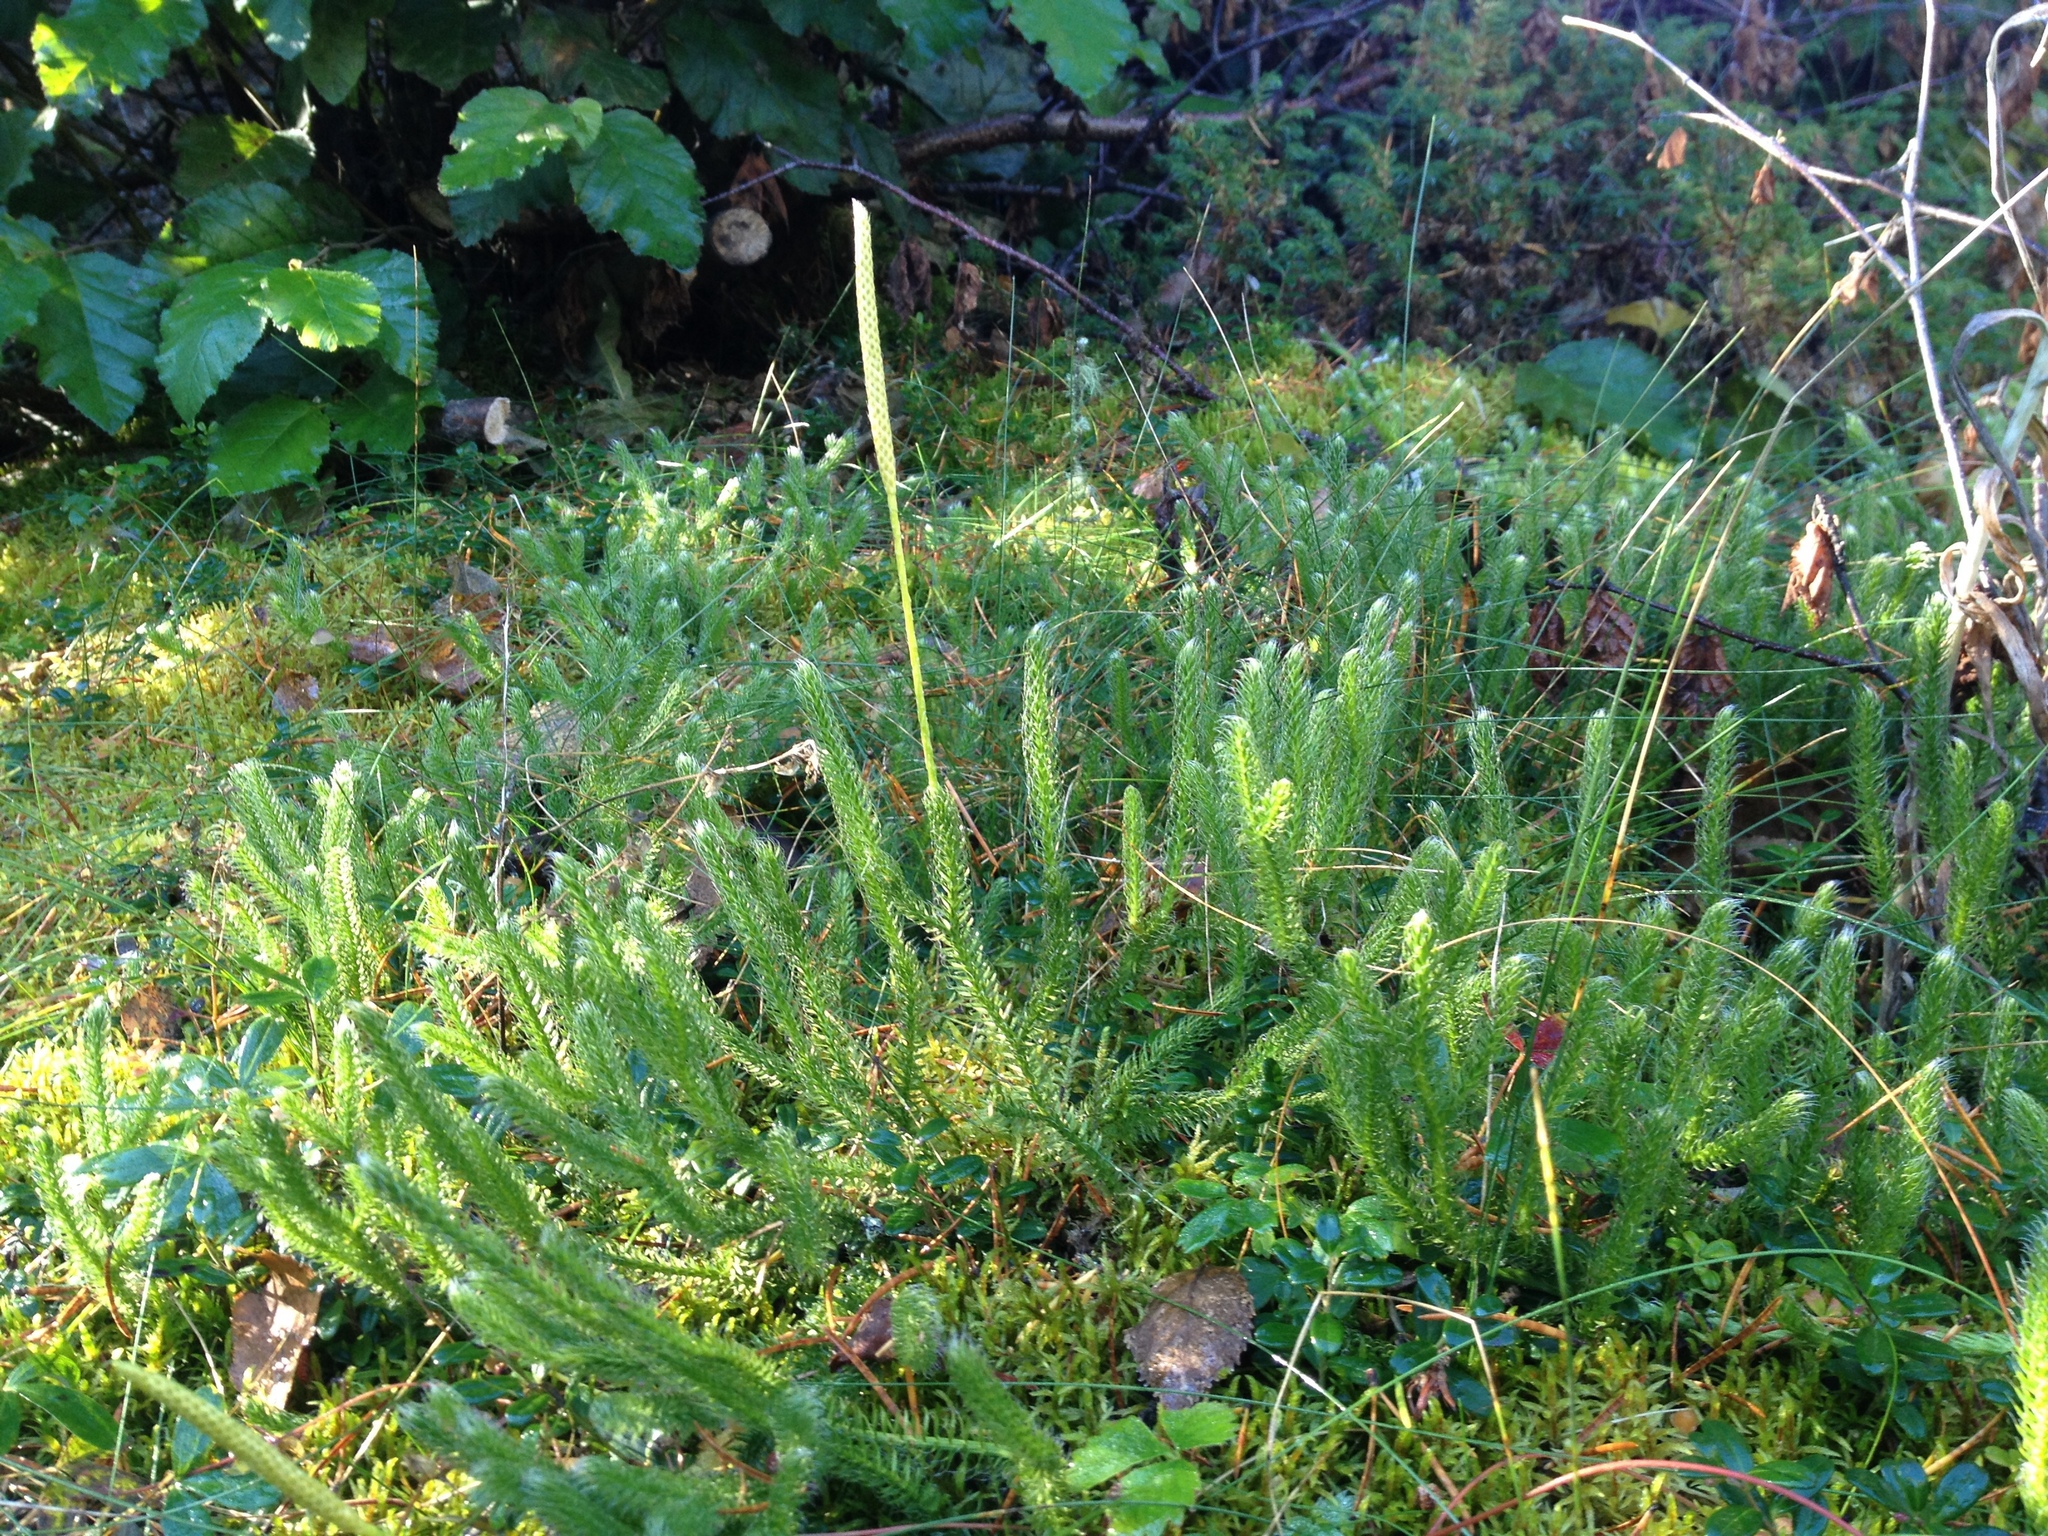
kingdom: Plantae
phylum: Tracheophyta
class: Lycopodiopsida
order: Lycopodiales
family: Lycopodiaceae
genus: Lycopodium
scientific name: Lycopodium lagopus
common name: One-cone clubmoss
